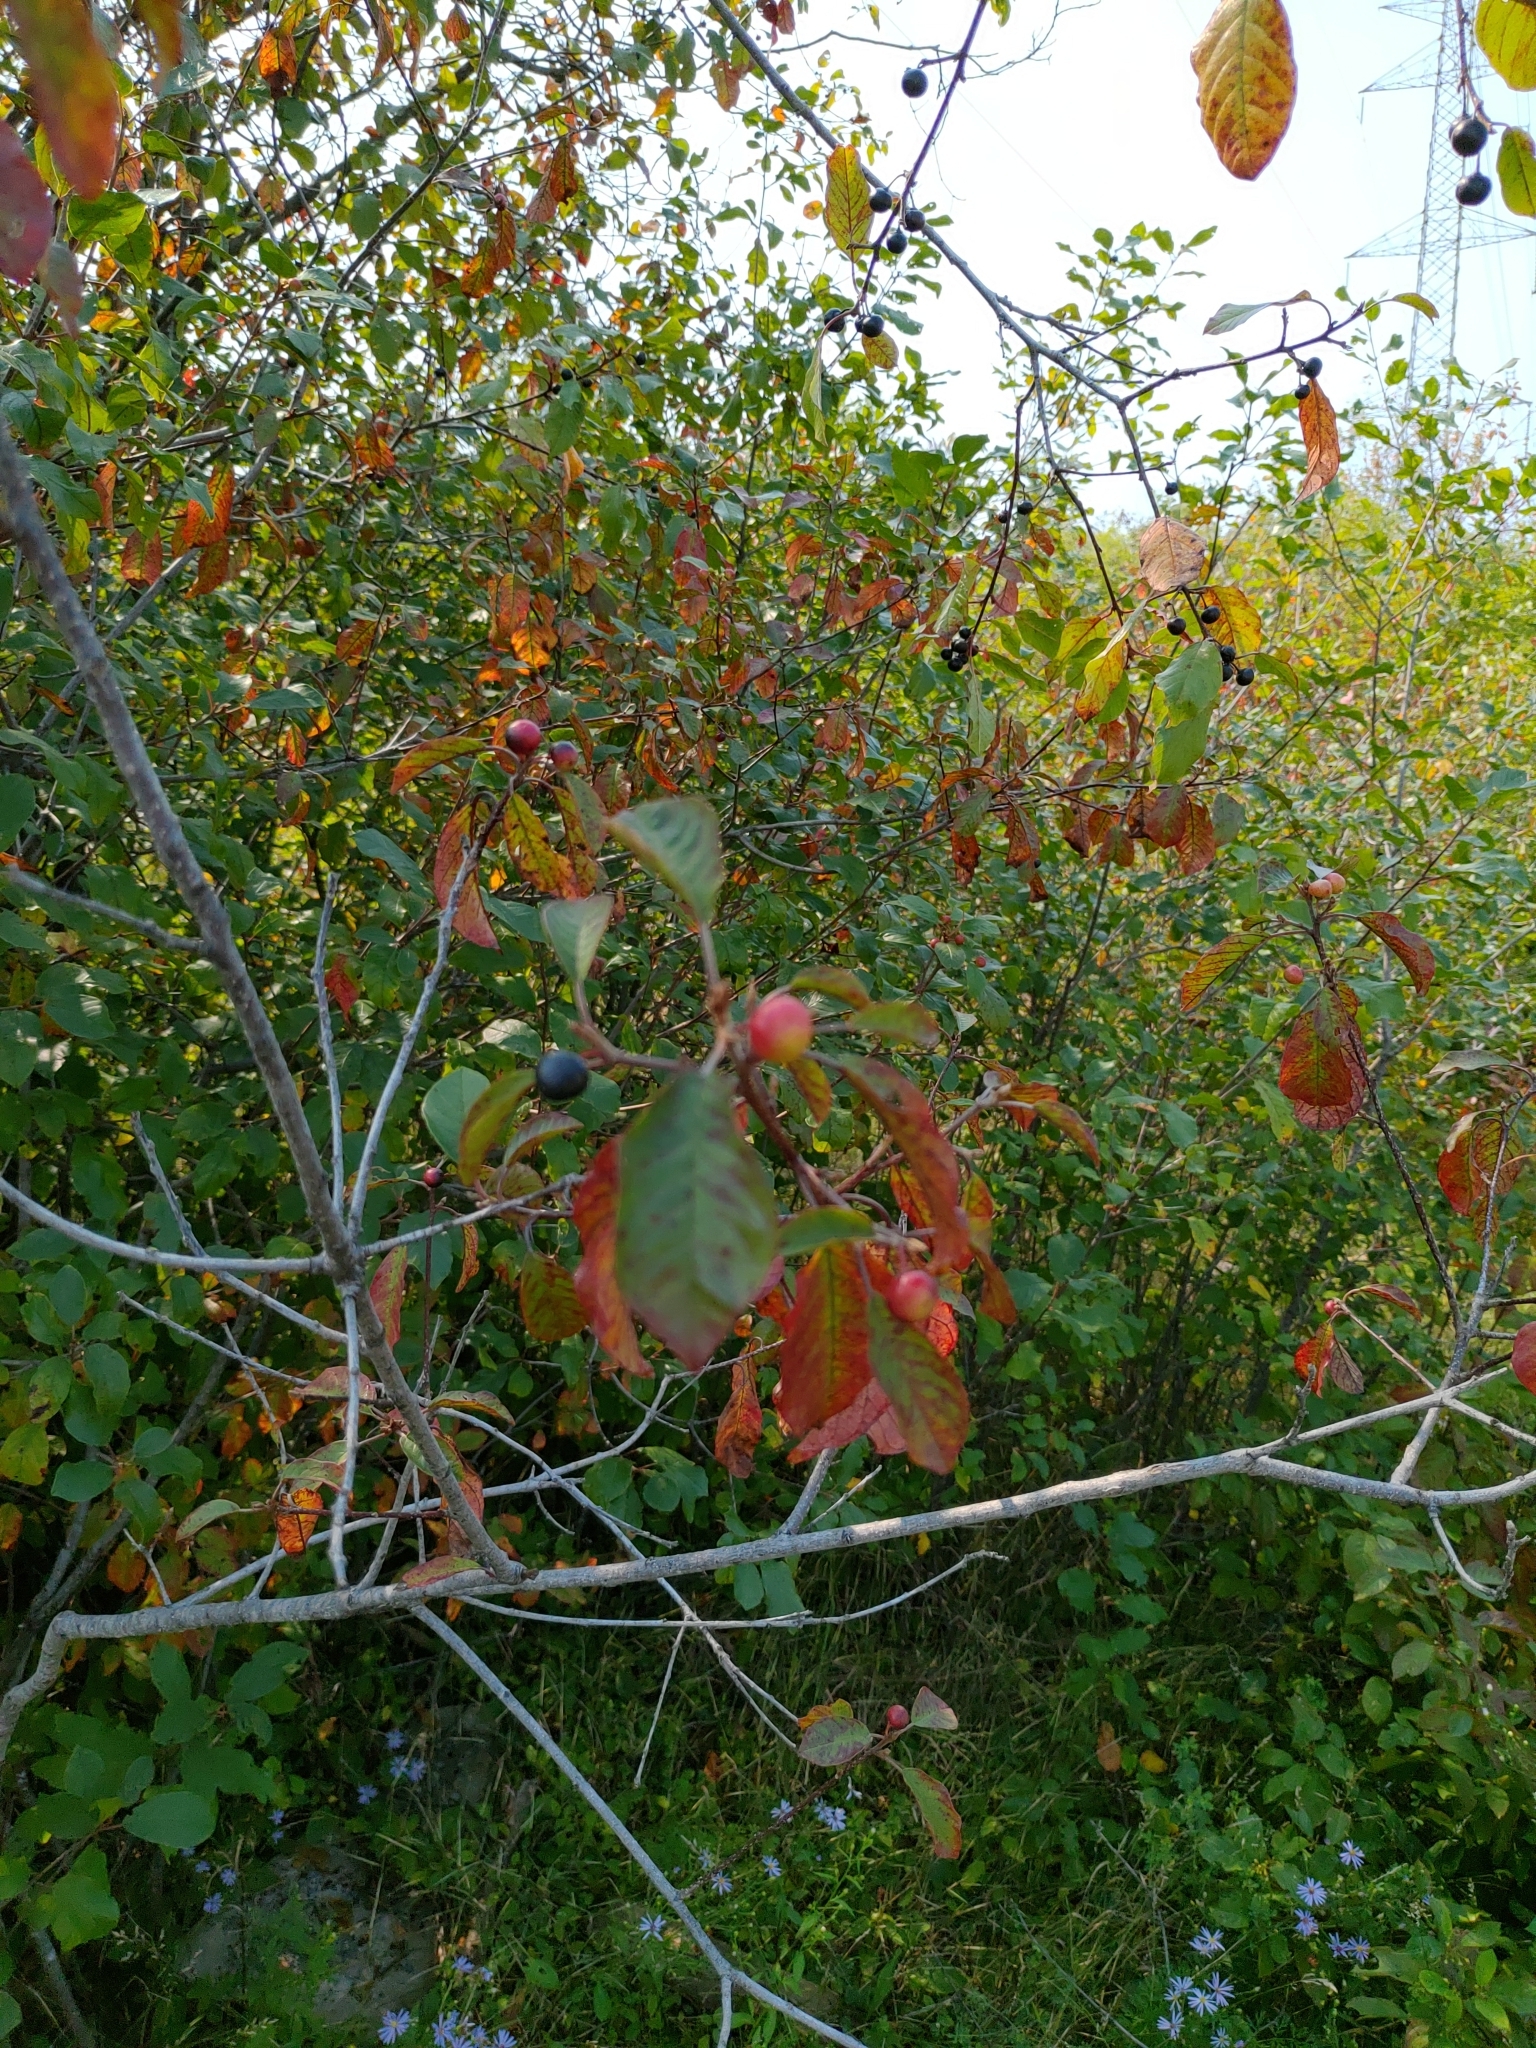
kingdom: Plantae
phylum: Tracheophyta
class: Magnoliopsida
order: Rosales
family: Rhamnaceae
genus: Frangula
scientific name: Frangula alnus
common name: Alder buckthorn
